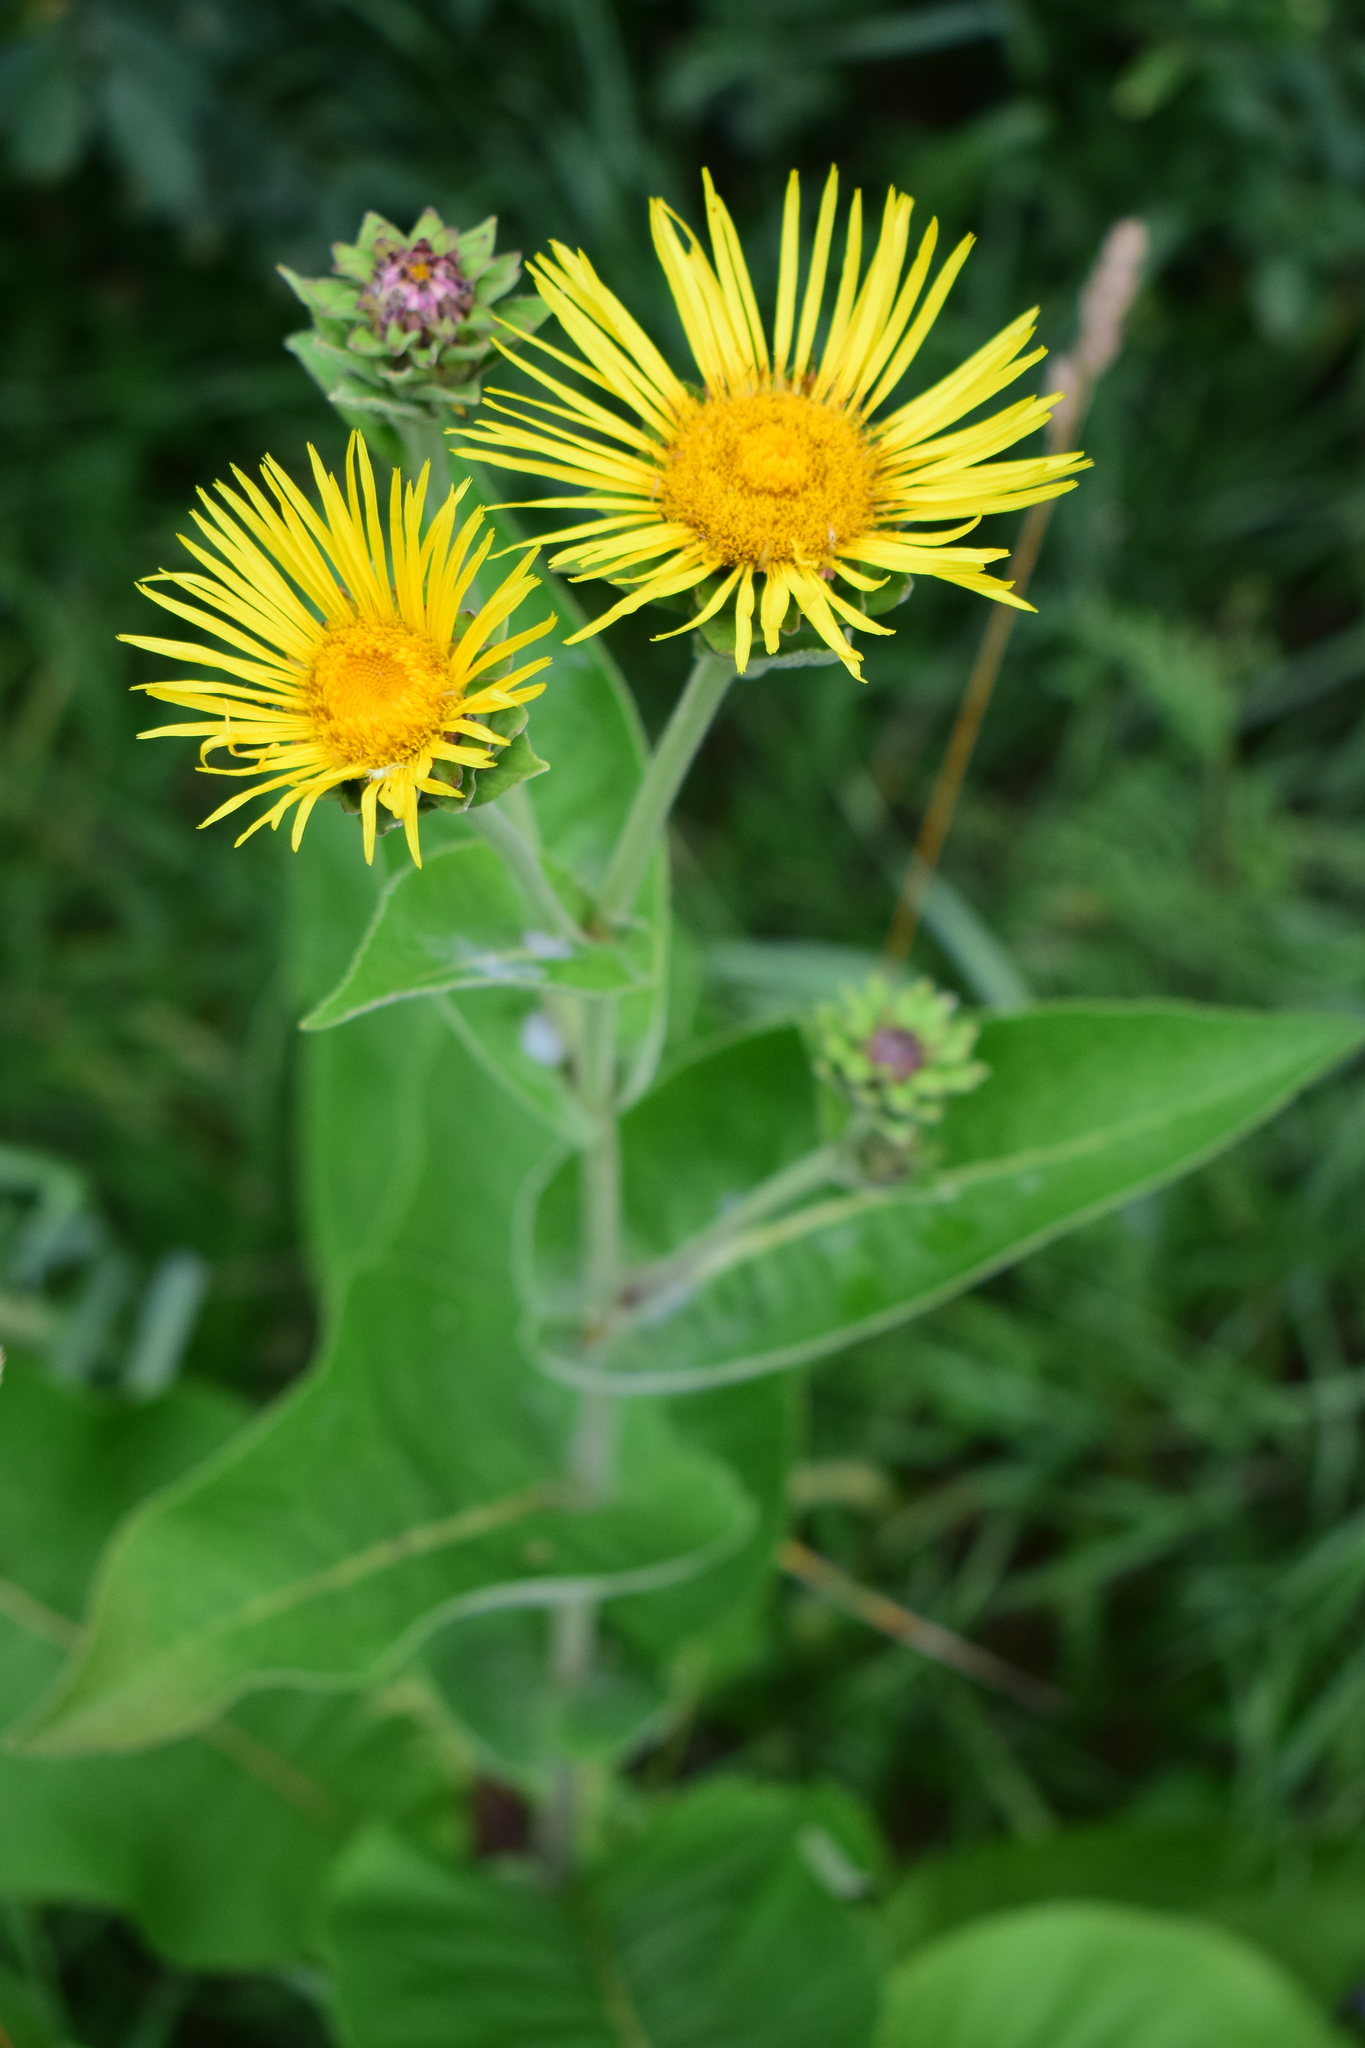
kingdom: Plantae
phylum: Tracheophyta
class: Magnoliopsida
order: Asterales
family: Asteraceae
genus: Inula
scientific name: Inula helenium
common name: Elecampane
